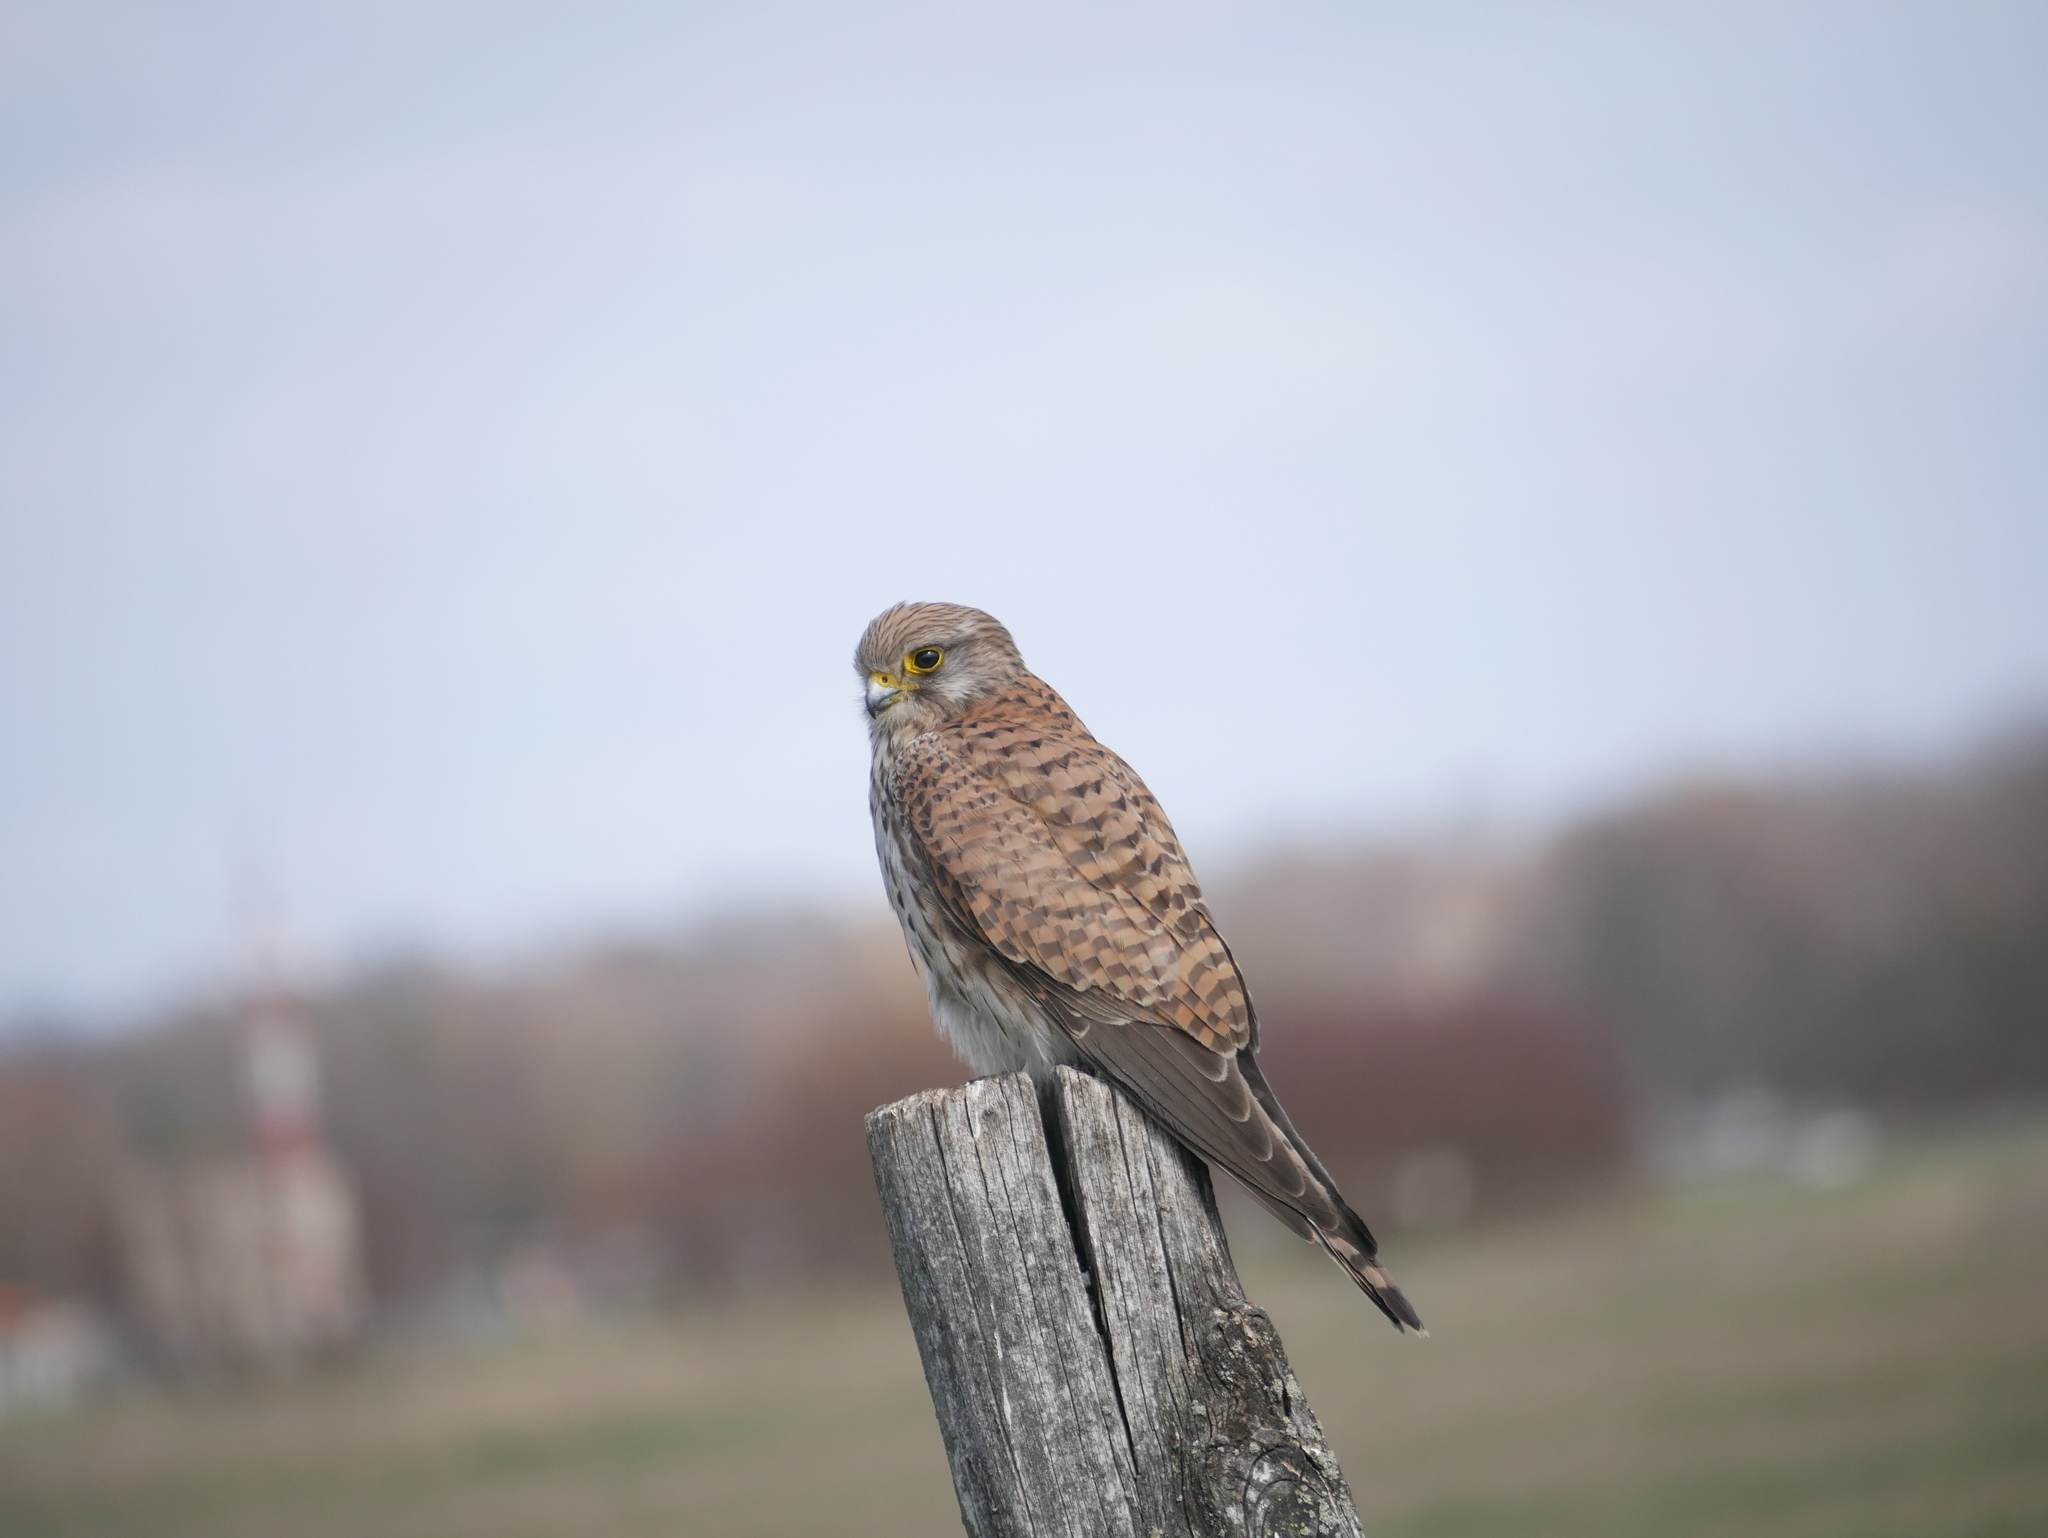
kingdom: Animalia
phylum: Chordata
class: Aves
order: Falconiformes
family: Falconidae
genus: Falco
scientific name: Falco tinnunculus
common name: Common kestrel
